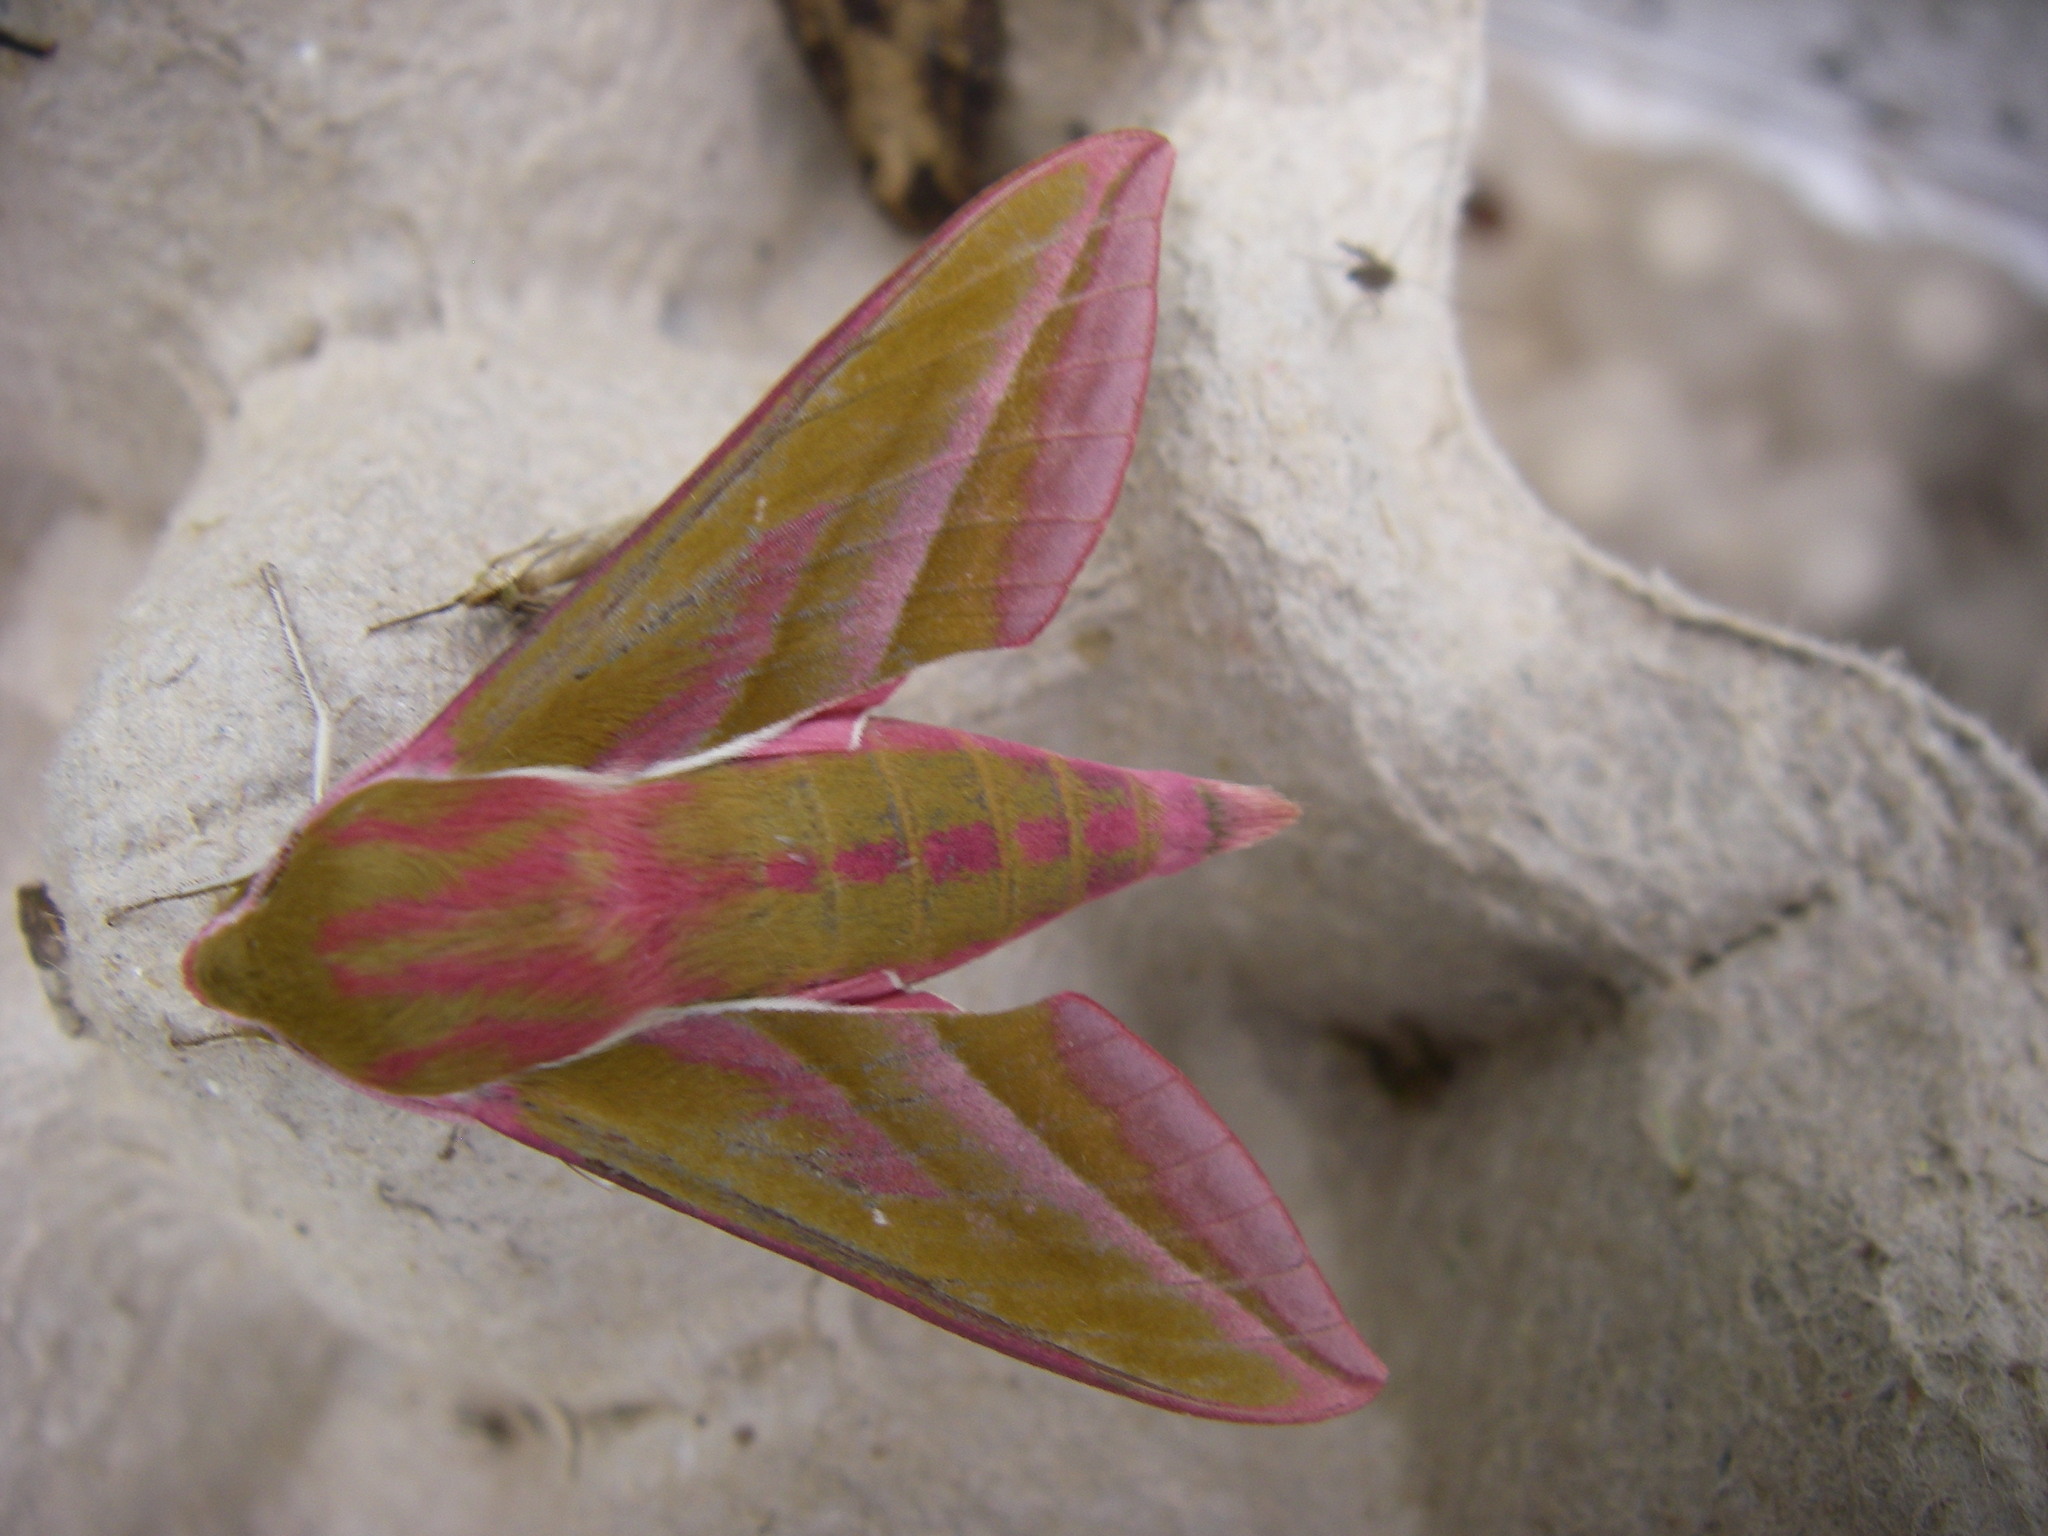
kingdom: Animalia
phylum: Arthropoda
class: Insecta
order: Lepidoptera
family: Sphingidae
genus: Deilephila
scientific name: Deilephila elpenor
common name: Elephant hawk-moth
